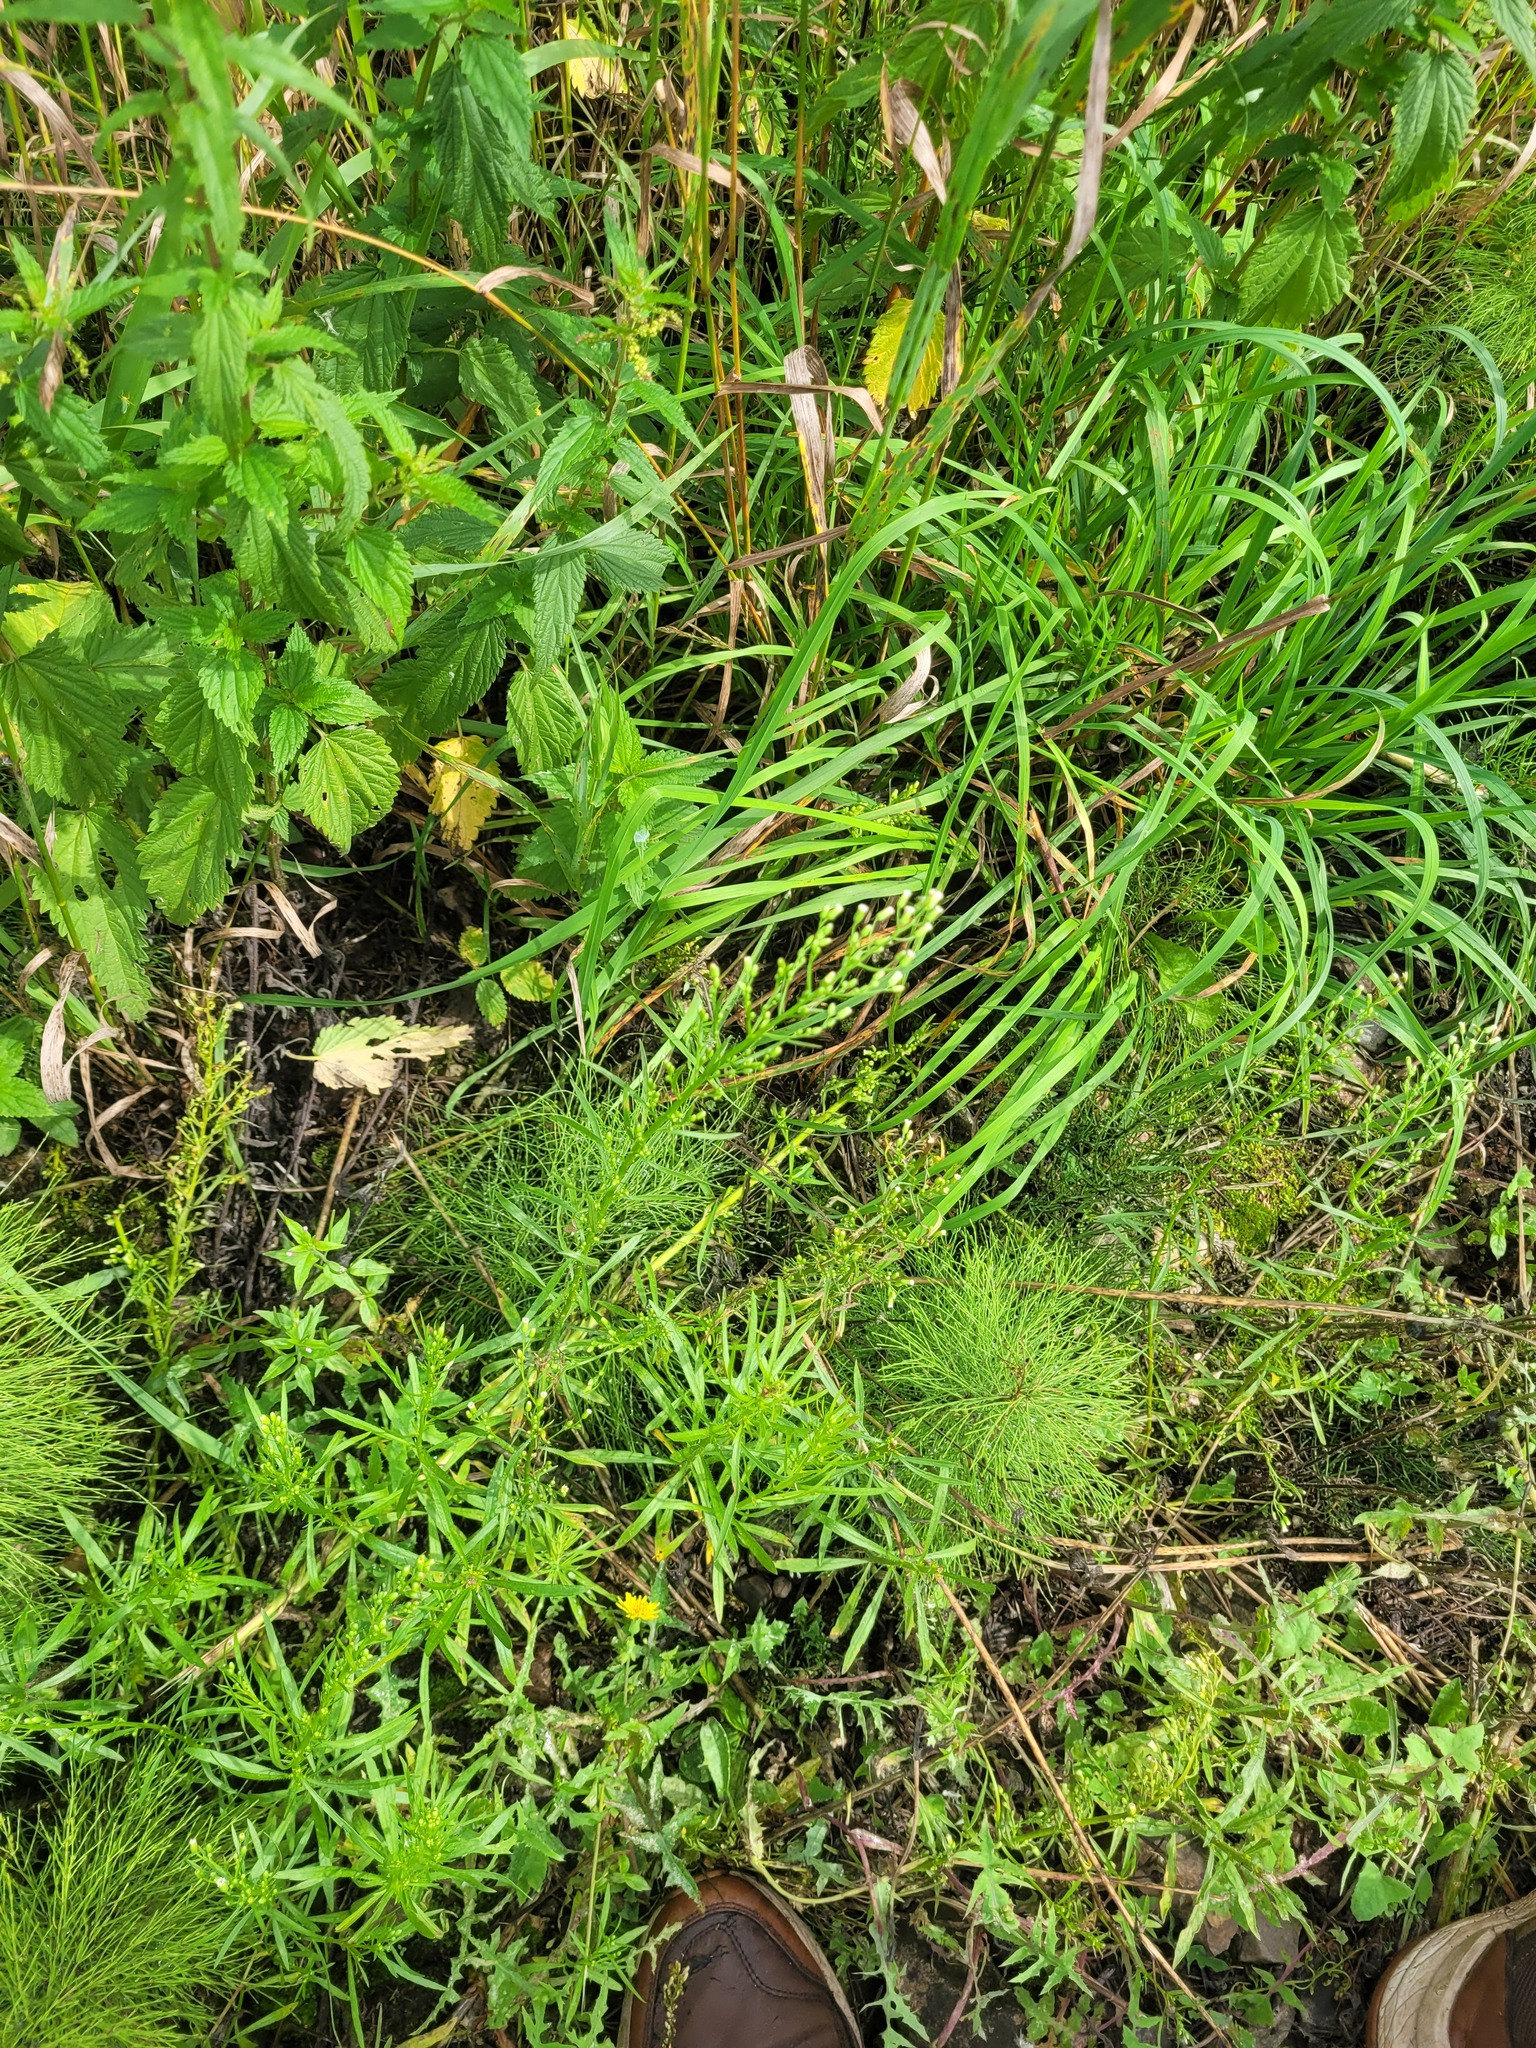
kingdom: Plantae
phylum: Tracheophyta
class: Magnoliopsida
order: Asterales
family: Asteraceae
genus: Erigeron
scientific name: Erigeron canadensis
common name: Canadian fleabane
